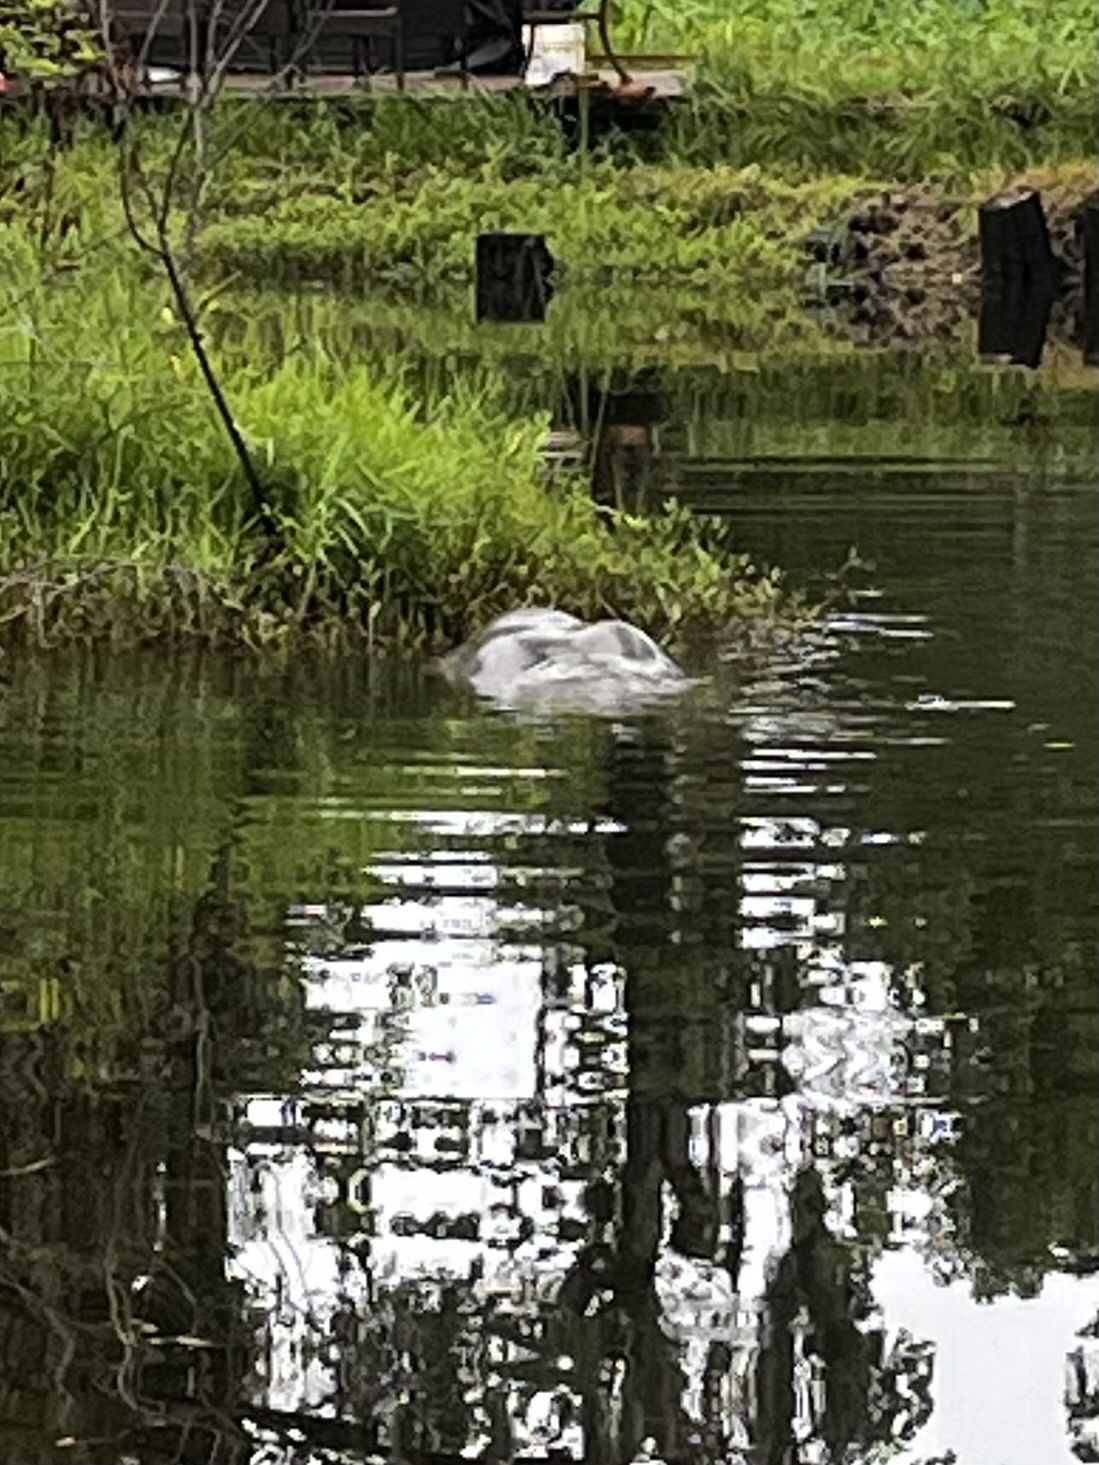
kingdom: Animalia
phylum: Chordata
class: Mammalia
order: Sirenia
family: Trichechidae
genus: Trichechus
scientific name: Trichechus manatus
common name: West indian manatee
